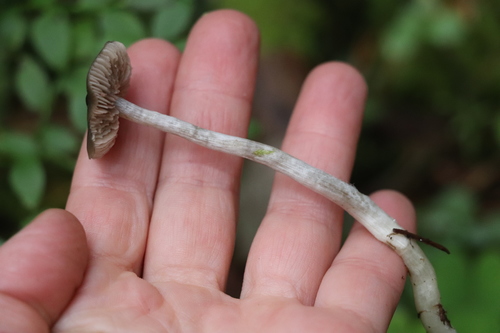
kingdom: Fungi
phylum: Basidiomycota
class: Agaricomycetes
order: Agaricales
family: Entolomataceae
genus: Entoloma
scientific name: Entoloma
